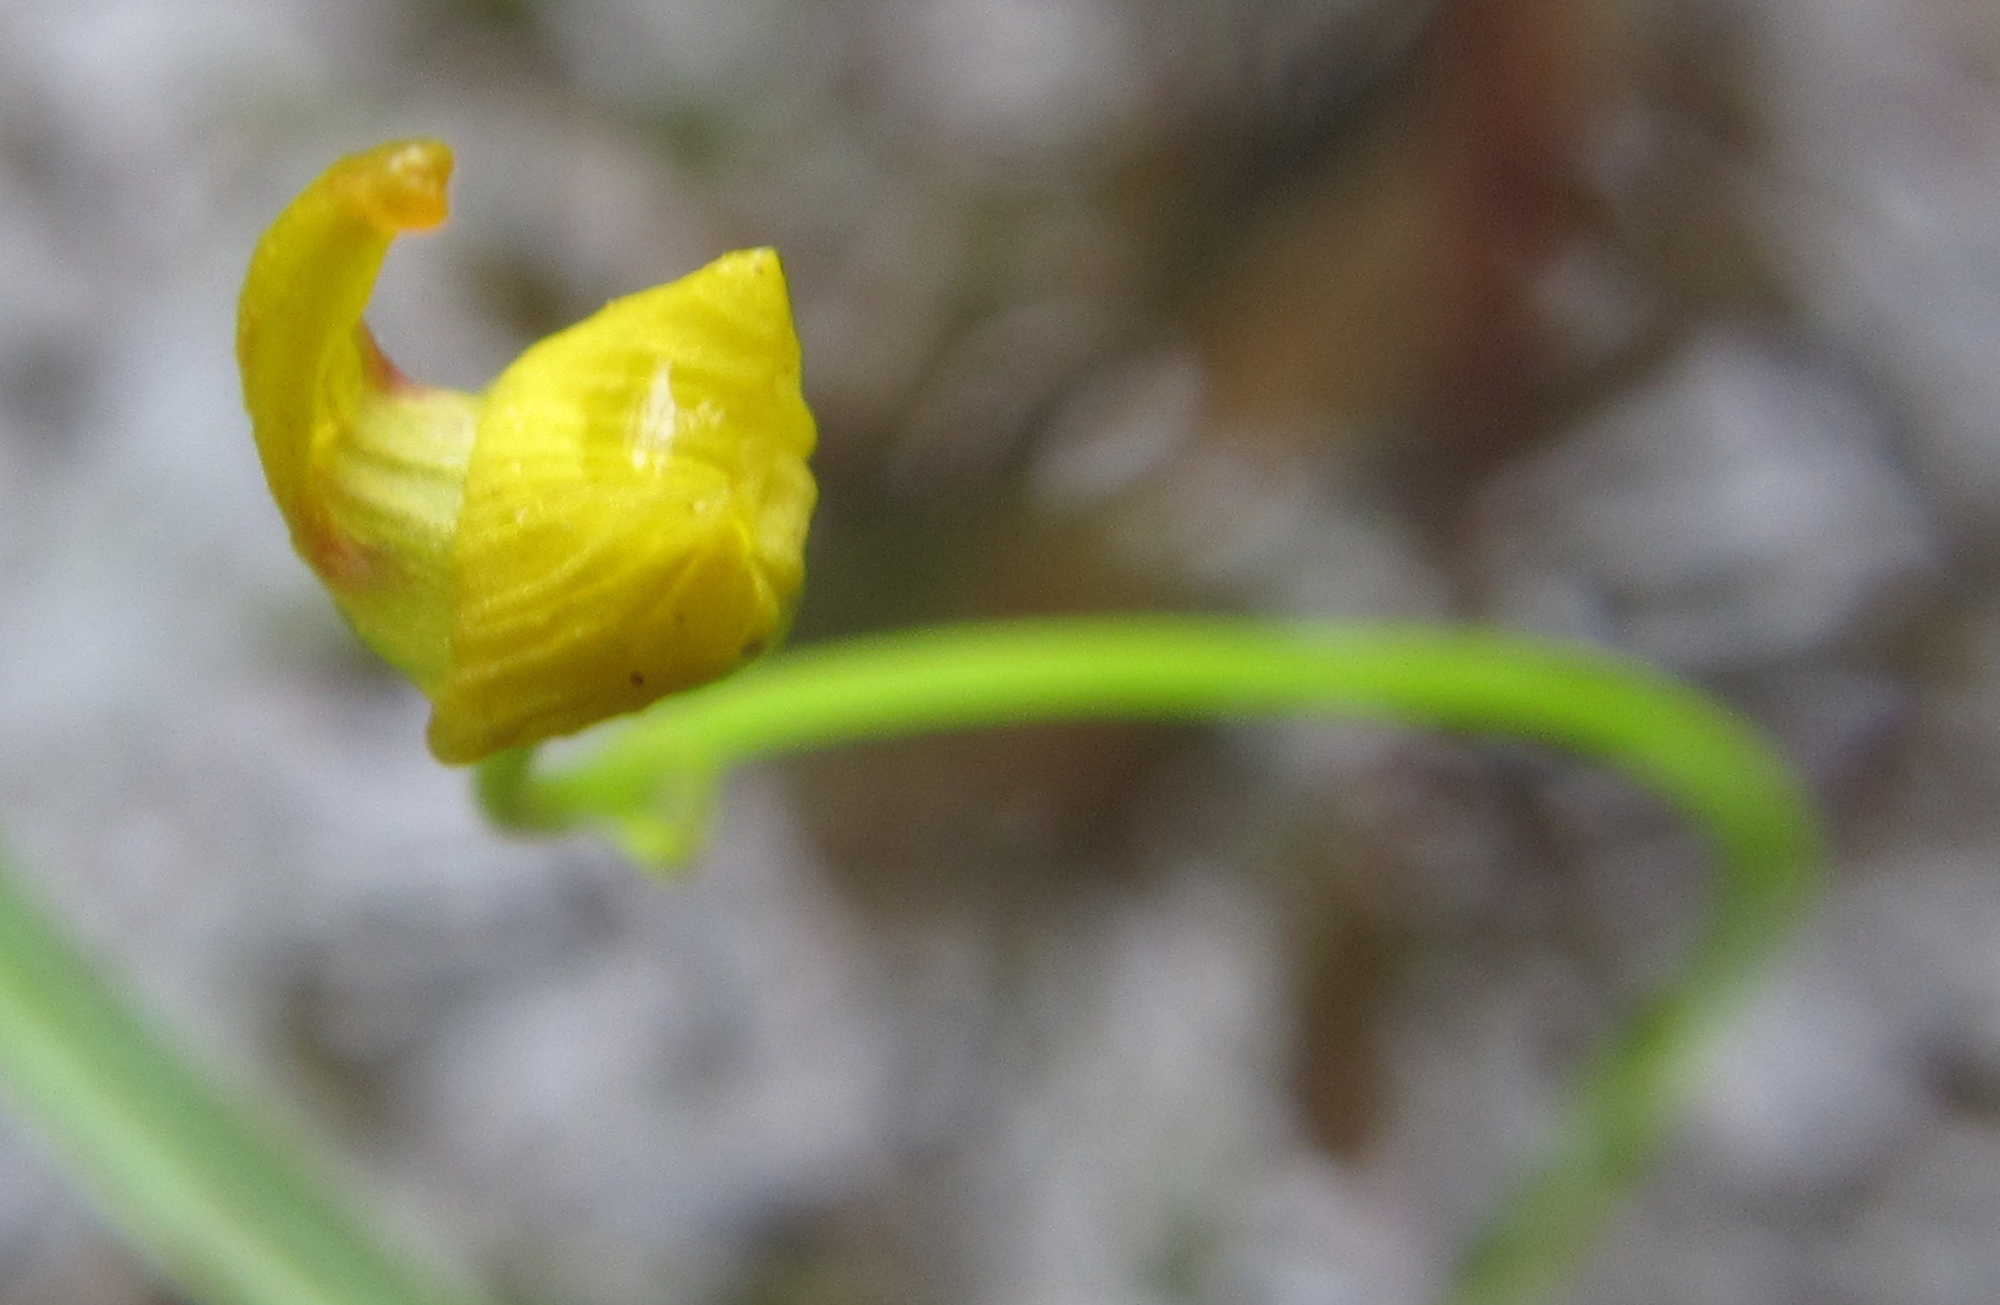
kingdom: Plantae
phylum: Tracheophyta
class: Magnoliopsida
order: Lamiales
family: Lentibulariaceae
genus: Utricularia
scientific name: Utricularia gibba
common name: Humped bladderwort
